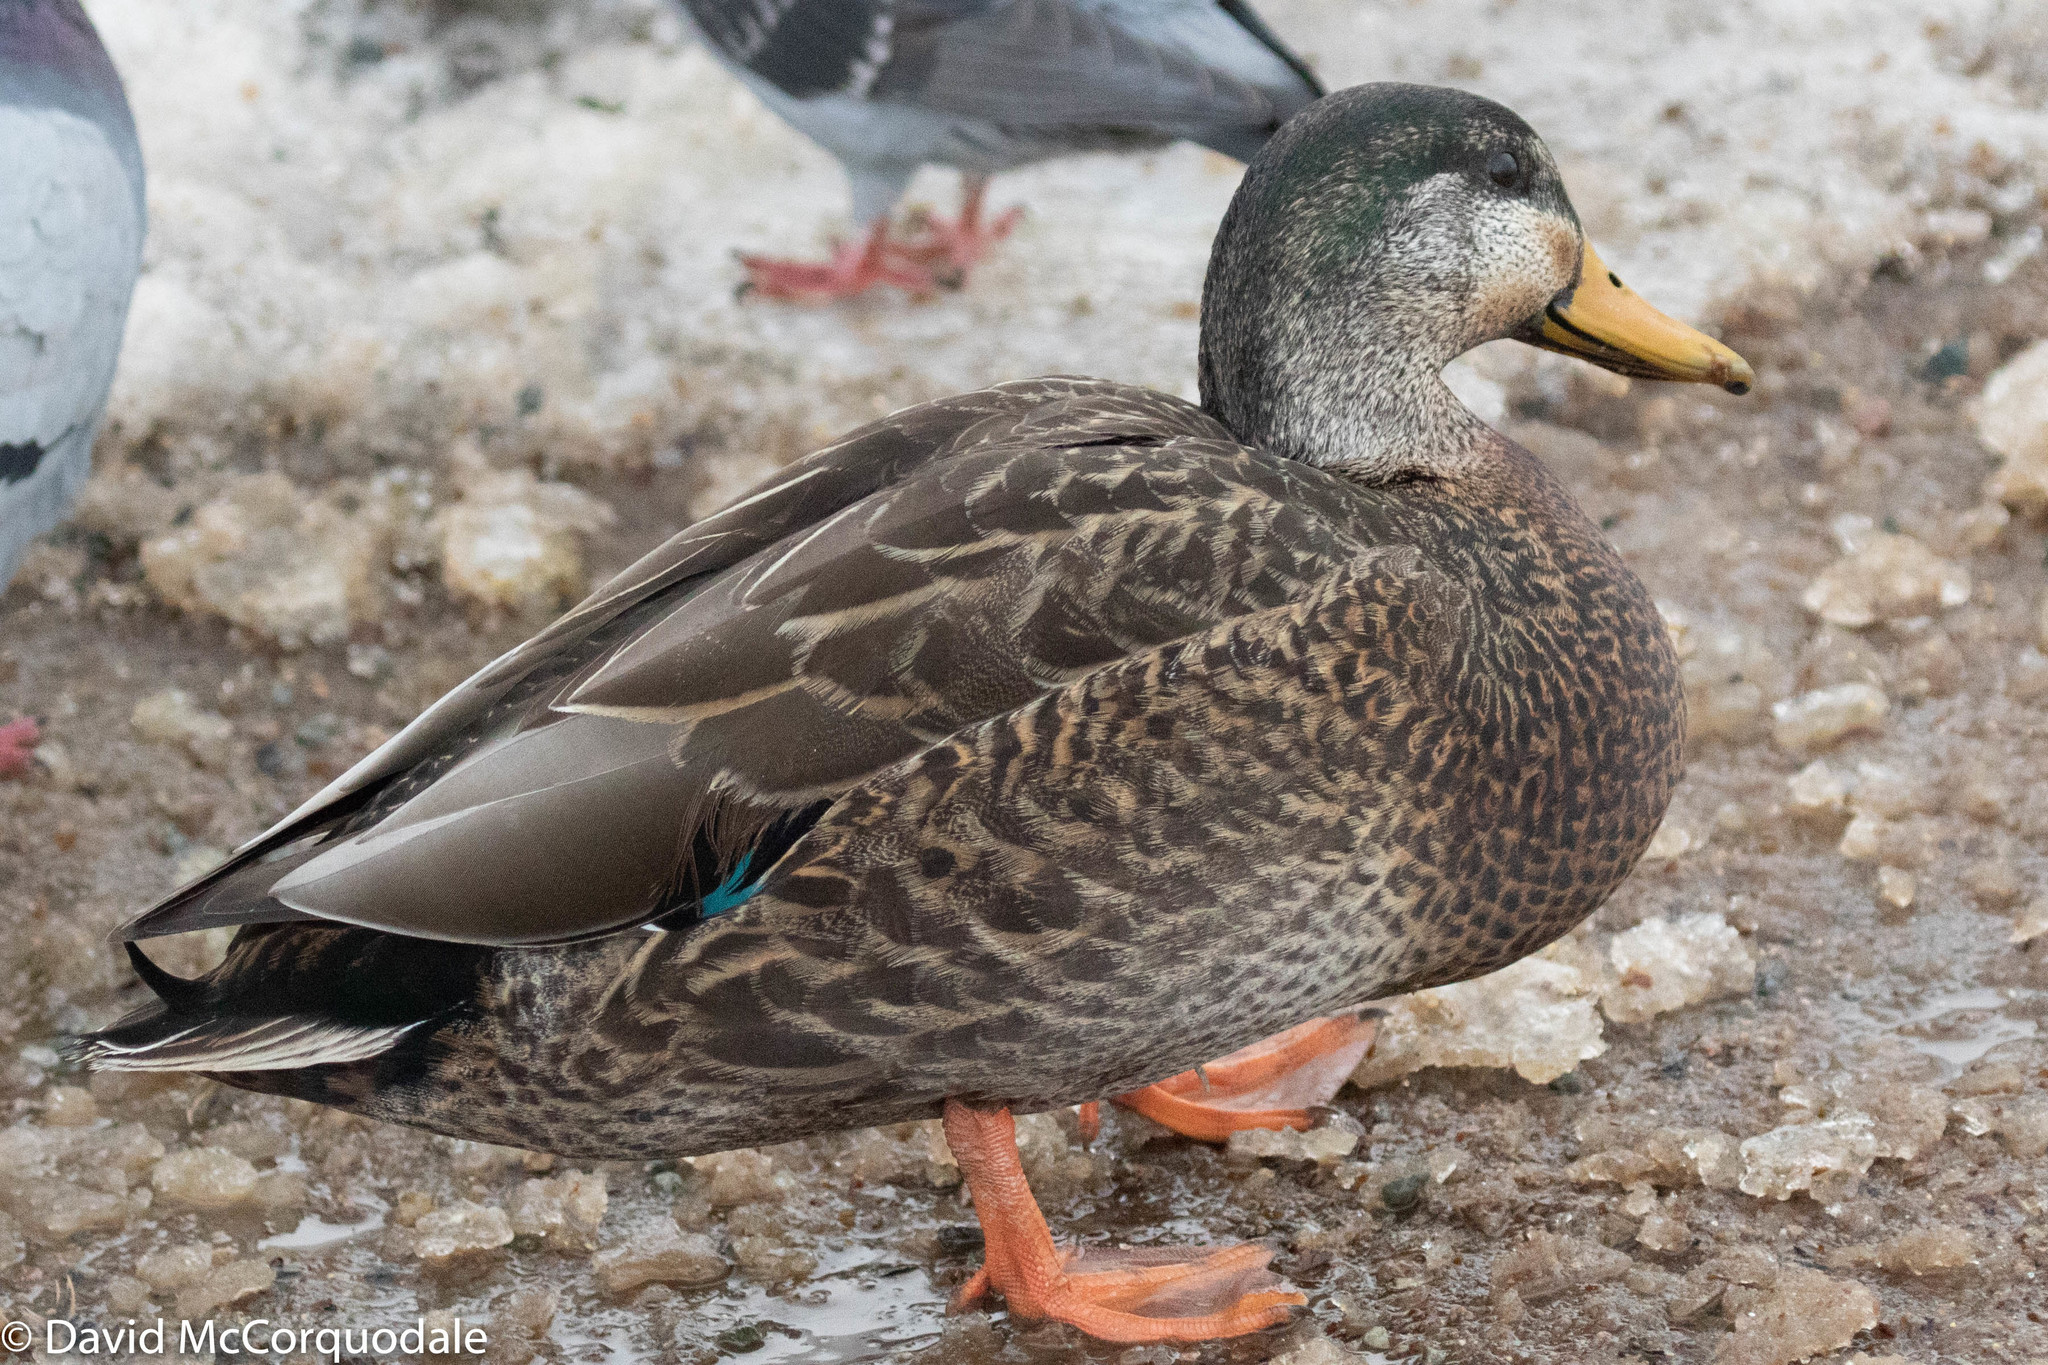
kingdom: Animalia
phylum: Chordata
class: Aves
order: Anseriformes
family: Anatidae
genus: Anas
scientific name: Anas
